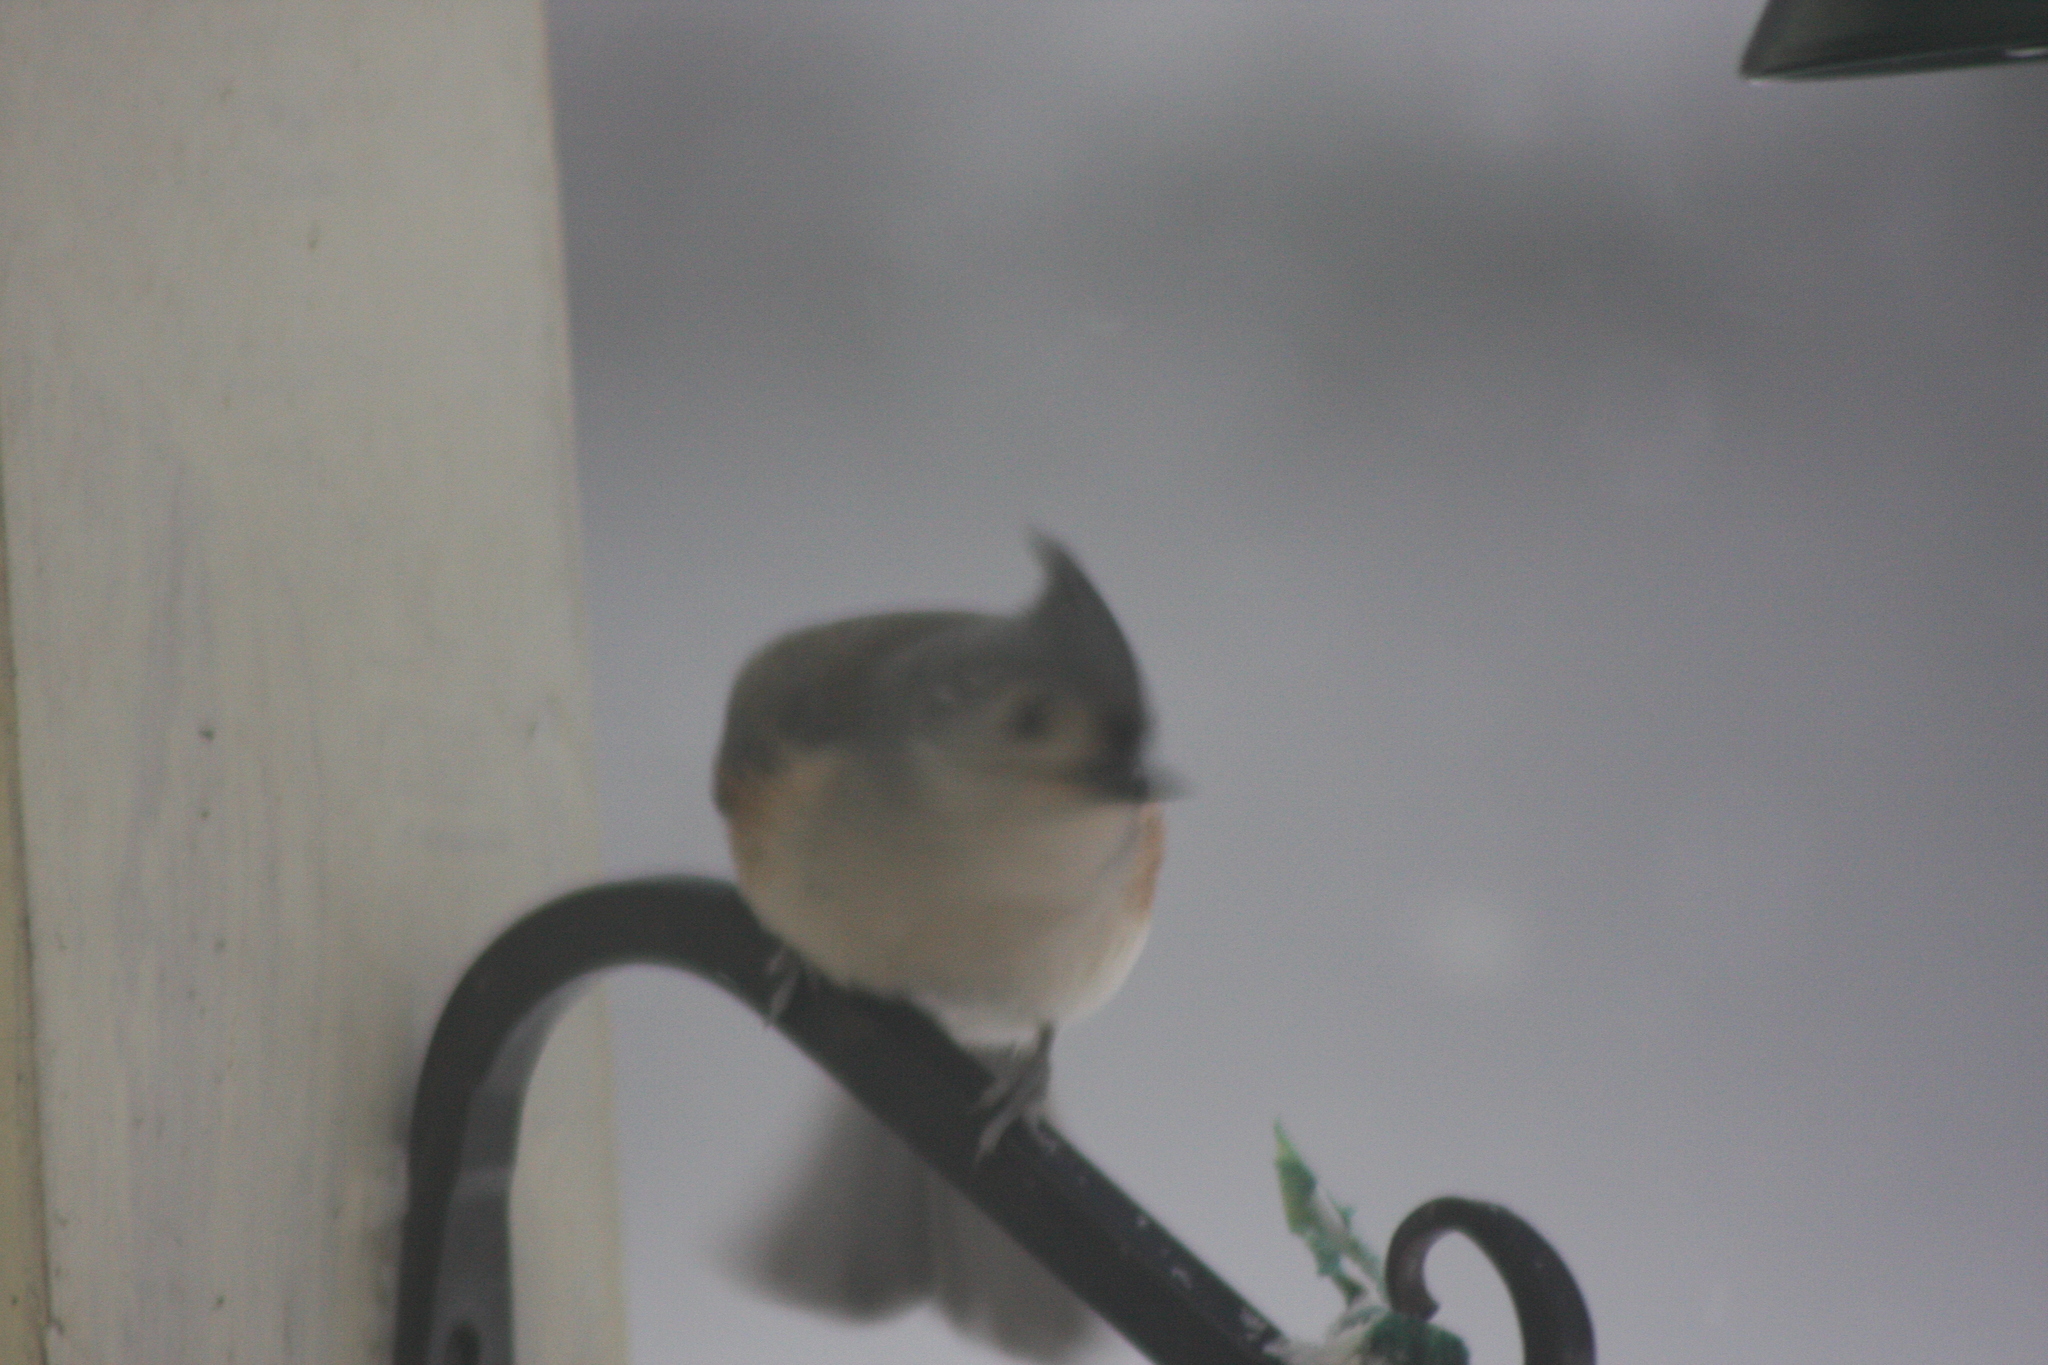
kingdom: Animalia
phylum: Chordata
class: Aves
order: Passeriformes
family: Paridae
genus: Baeolophus
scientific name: Baeolophus bicolor
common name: Tufted titmouse
